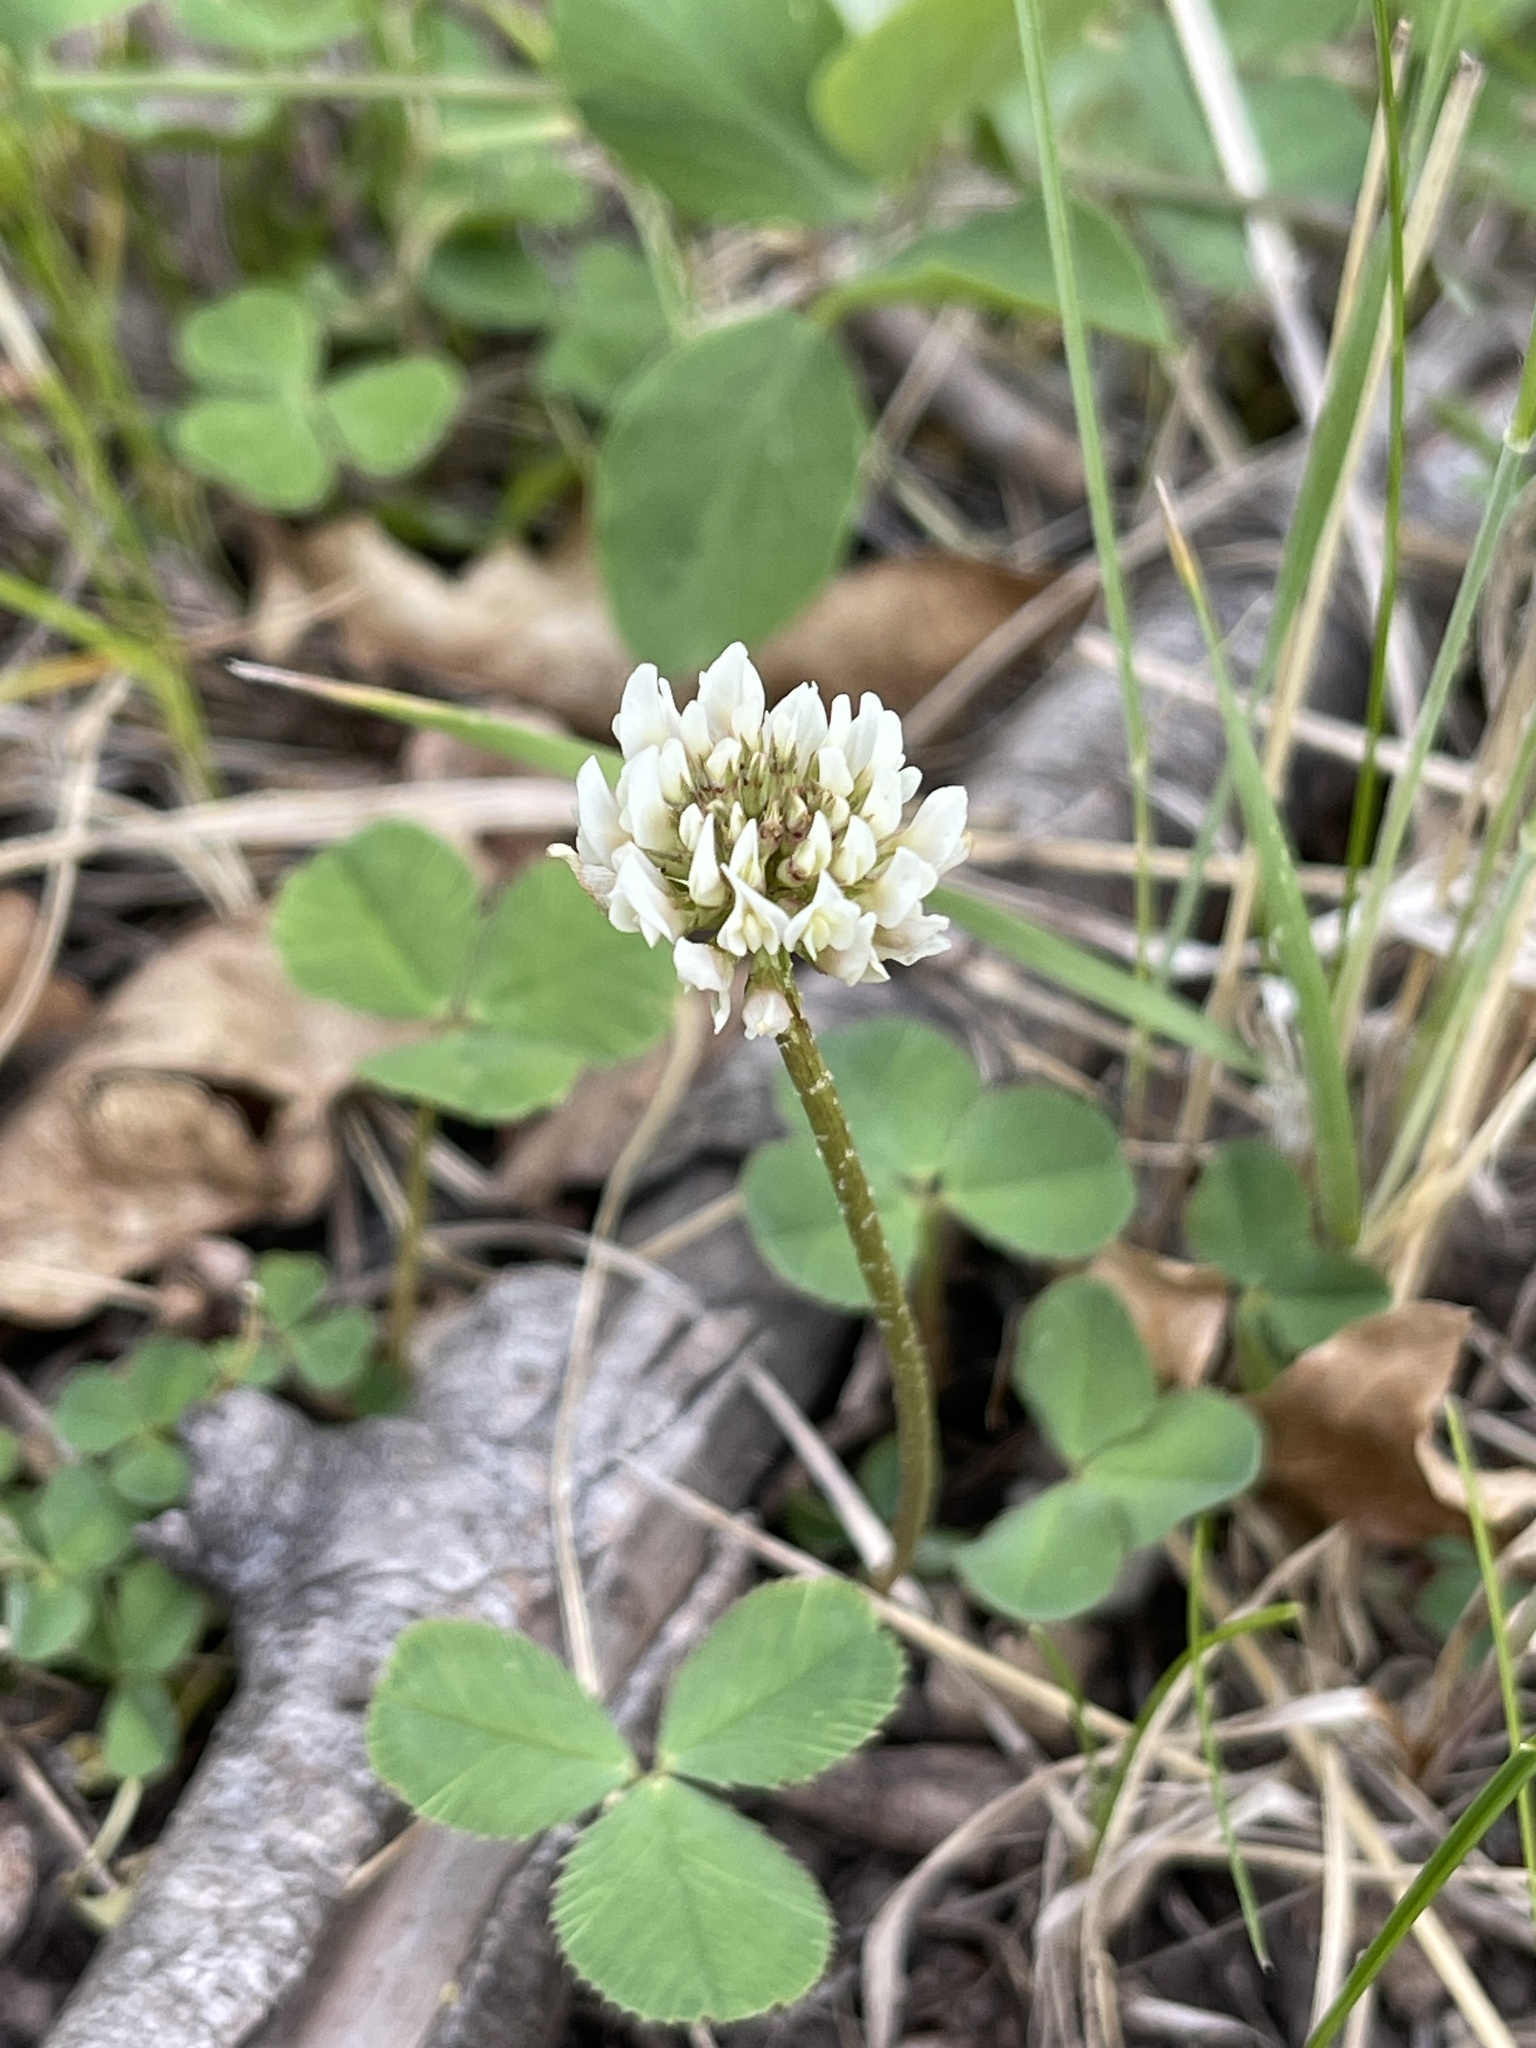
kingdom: Plantae
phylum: Tracheophyta
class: Magnoliopsida
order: Fabales
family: Fabaceae
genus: Trifolium
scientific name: Trifolium repens
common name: White clover
